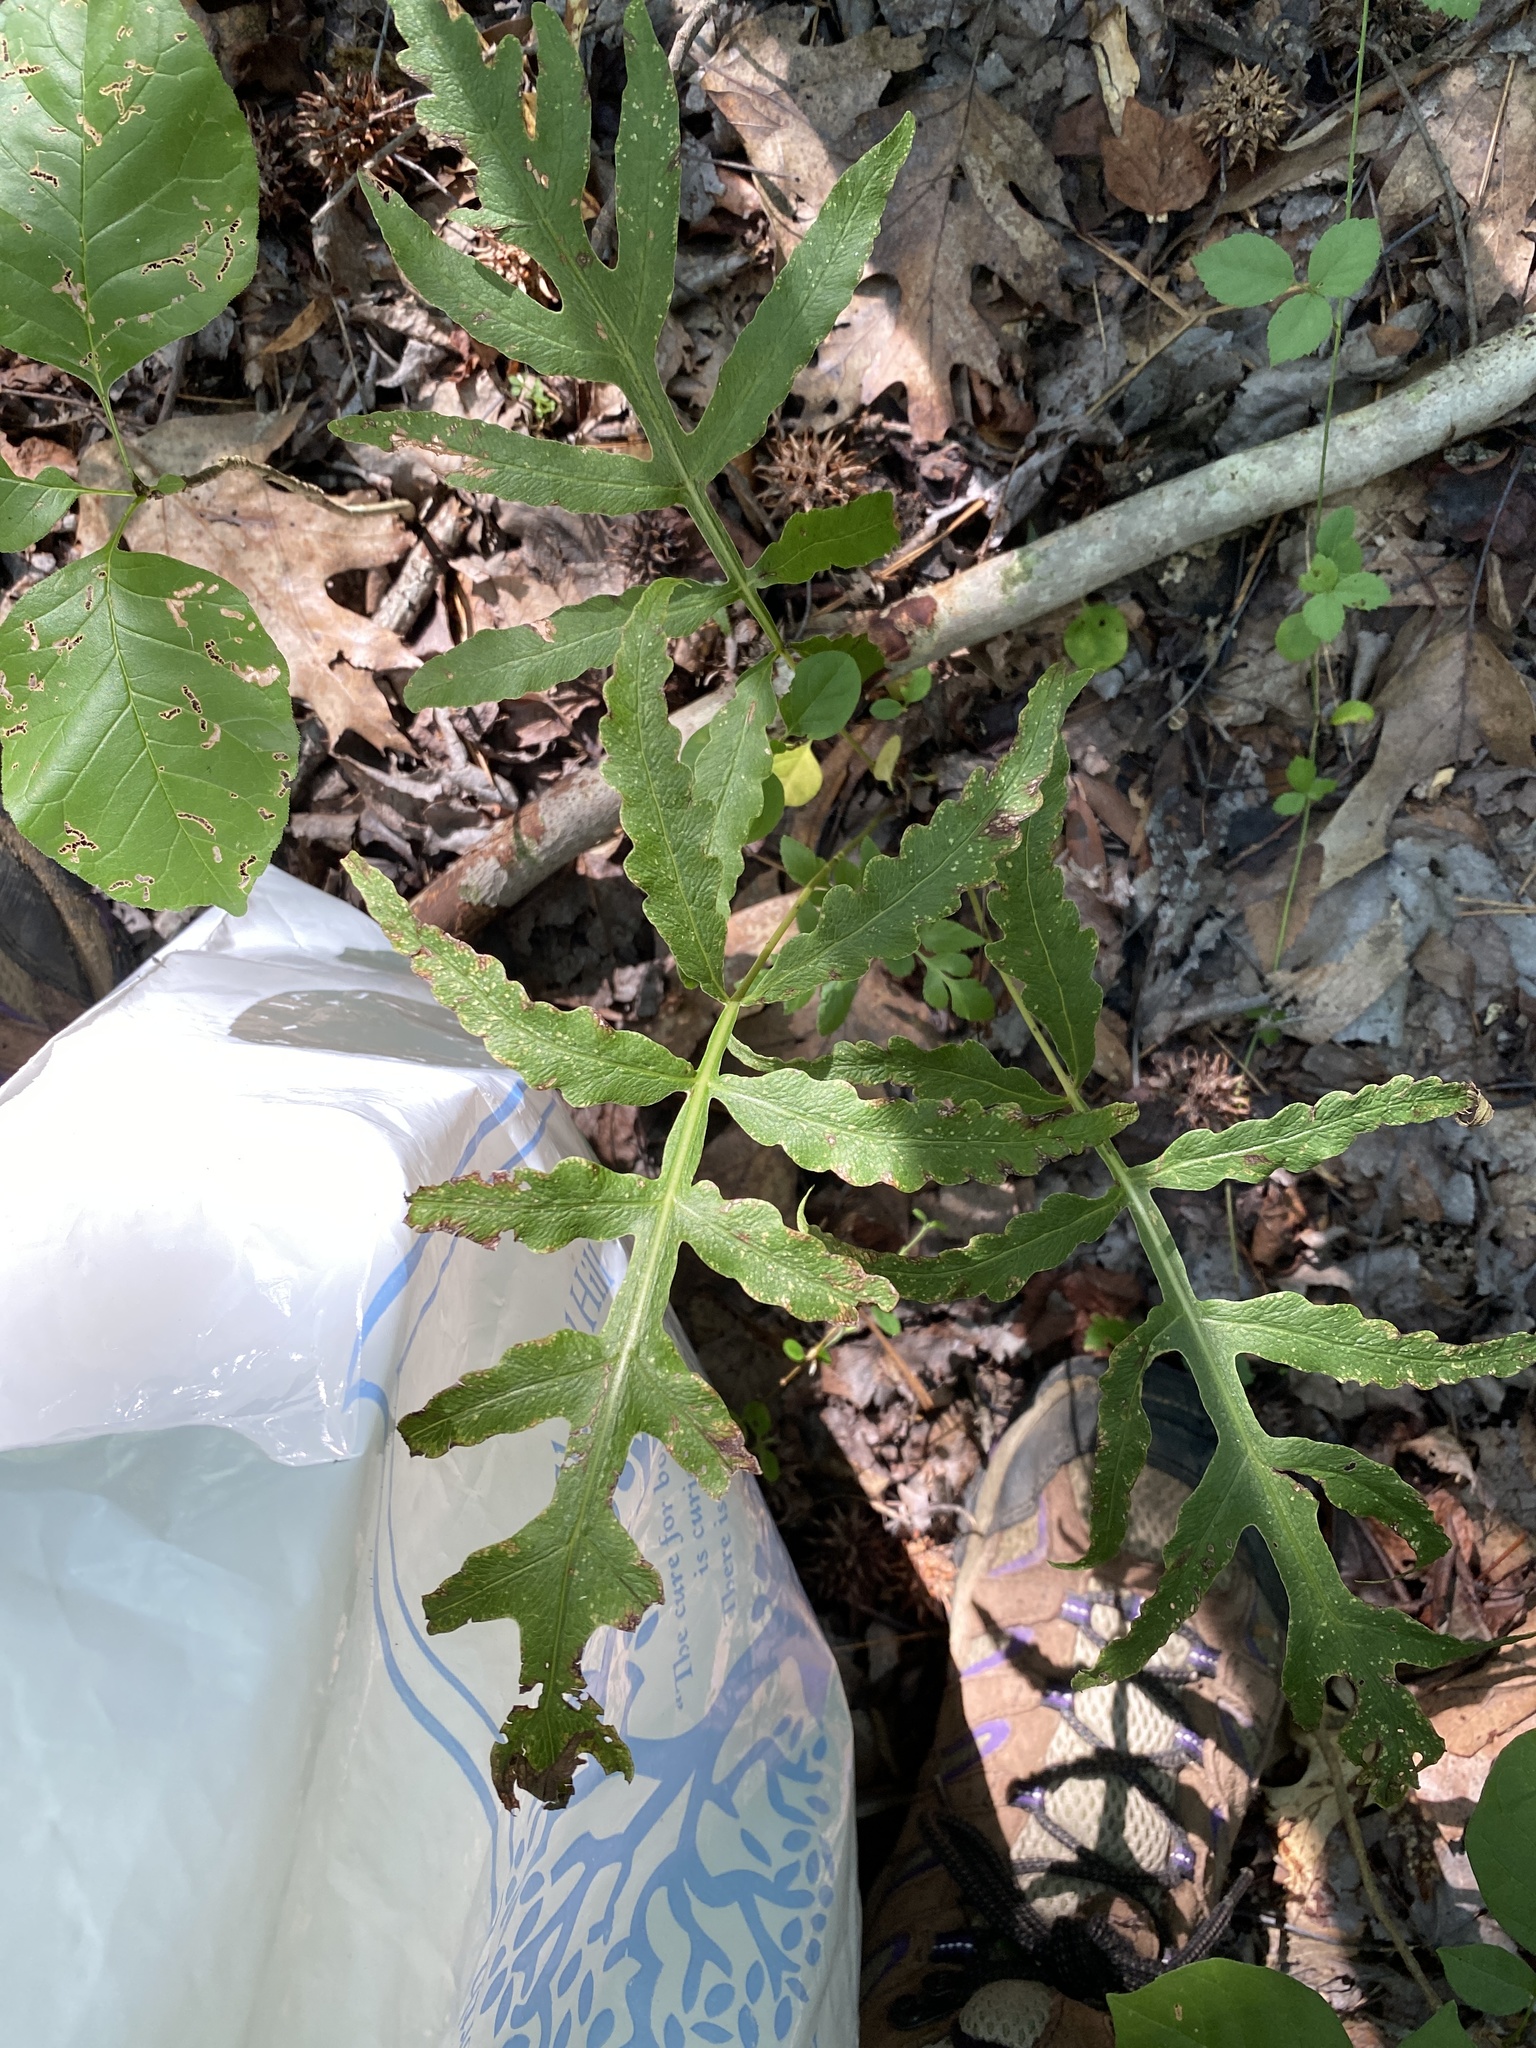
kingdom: Plantae
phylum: Tracheophyta
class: Polypodiopsida
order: Polypodiales
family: Onocleaceae
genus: Onoclea
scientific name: Onoclea sensibilis
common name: Sensitive fern
